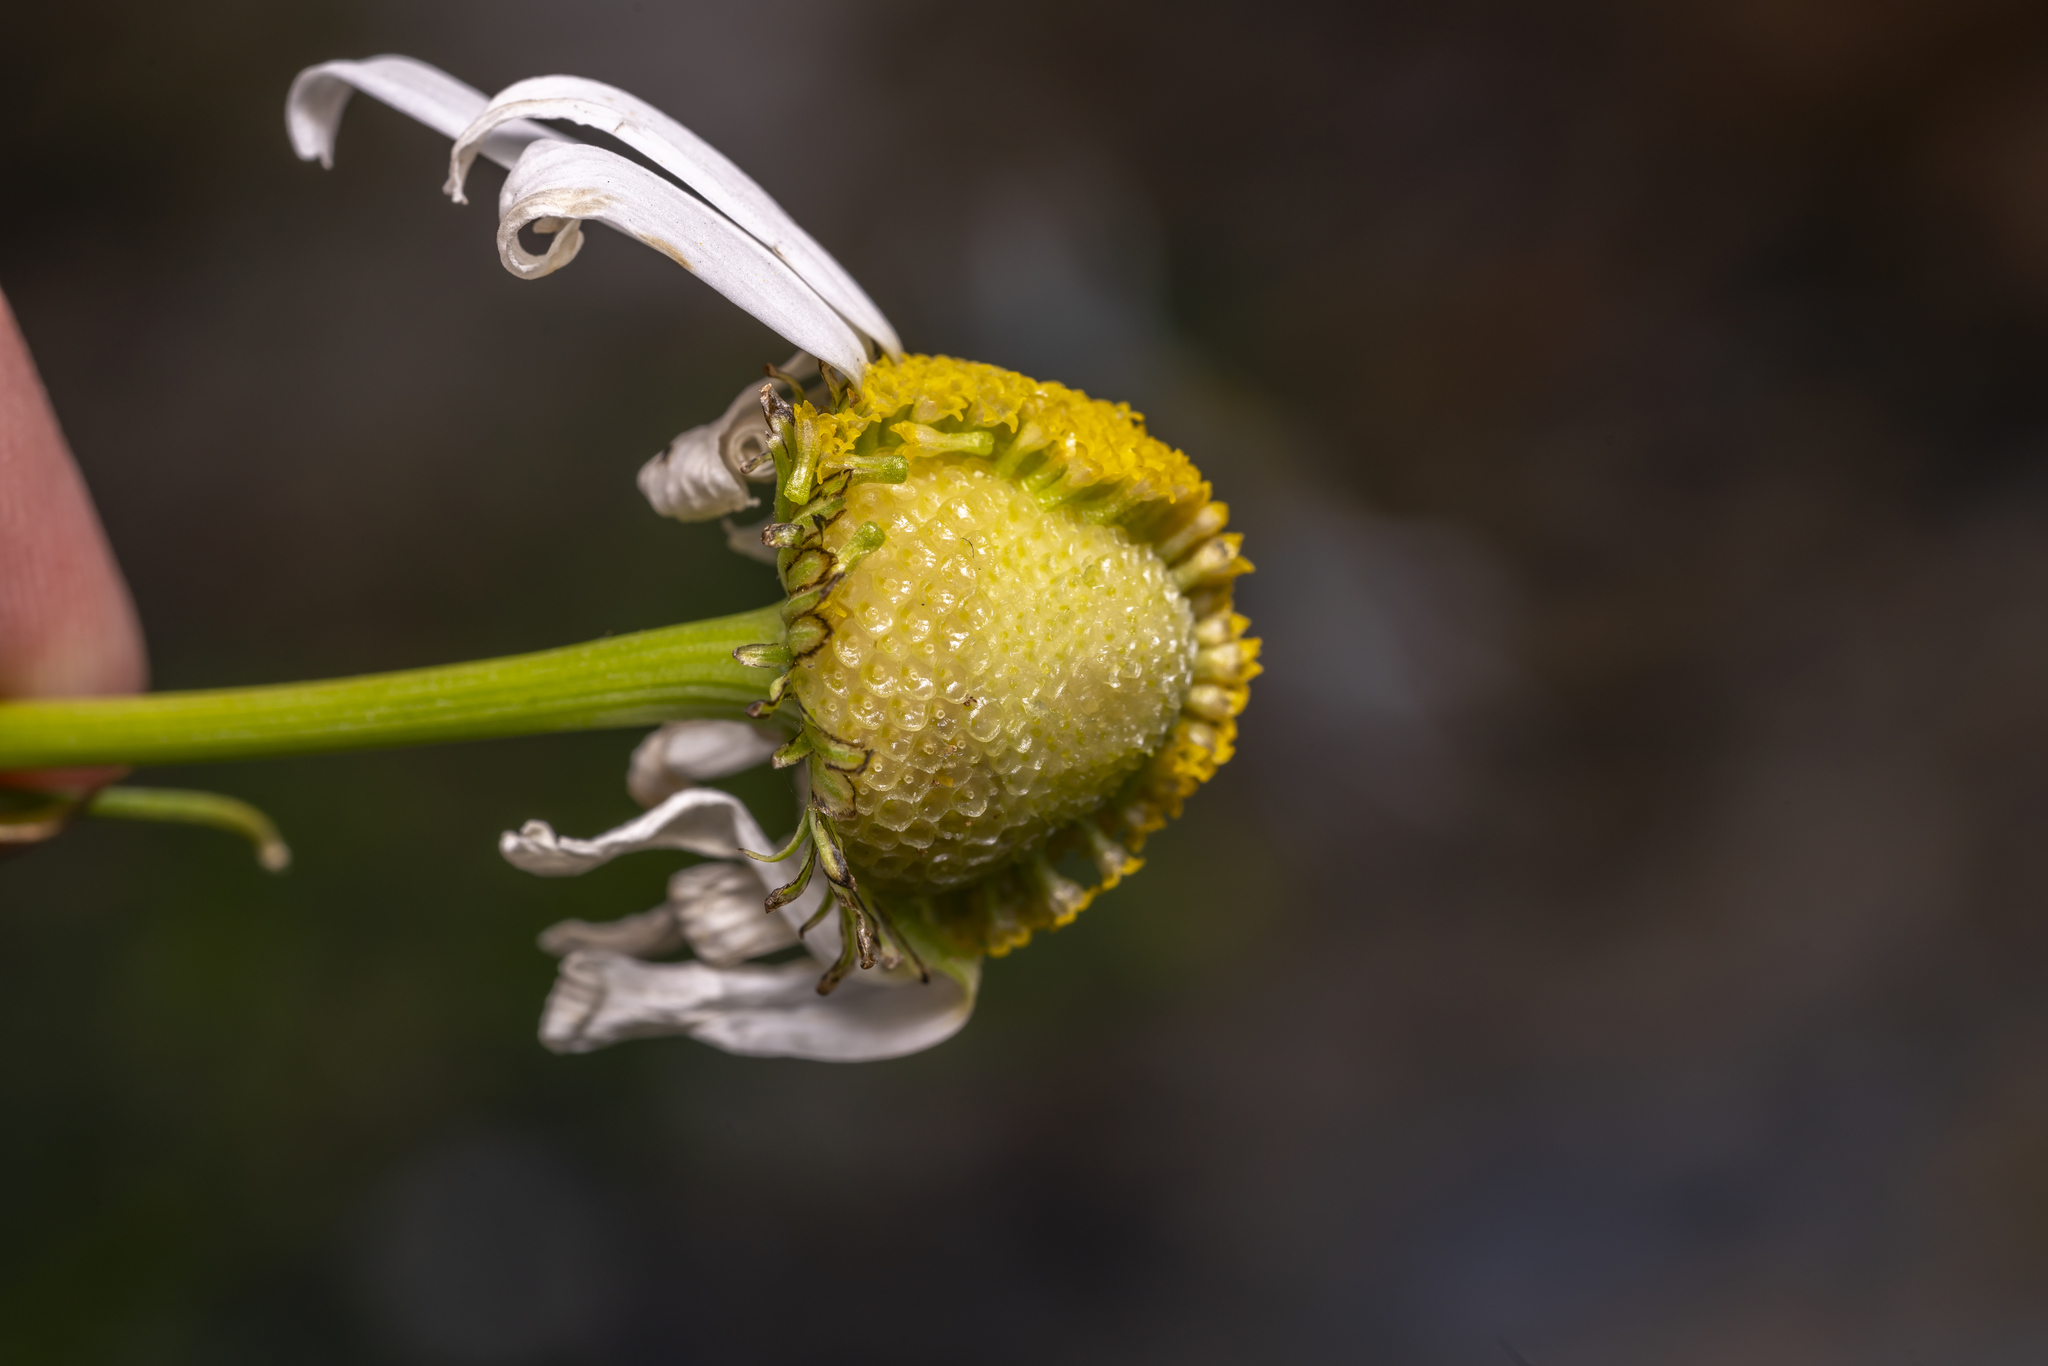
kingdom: Plantae
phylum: Tracheophyta
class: Magnoliopsida
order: Asterales
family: Asteraceae
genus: Tripleurospermum
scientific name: Tripleurospermum inodorum
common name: Scentless mayweed
